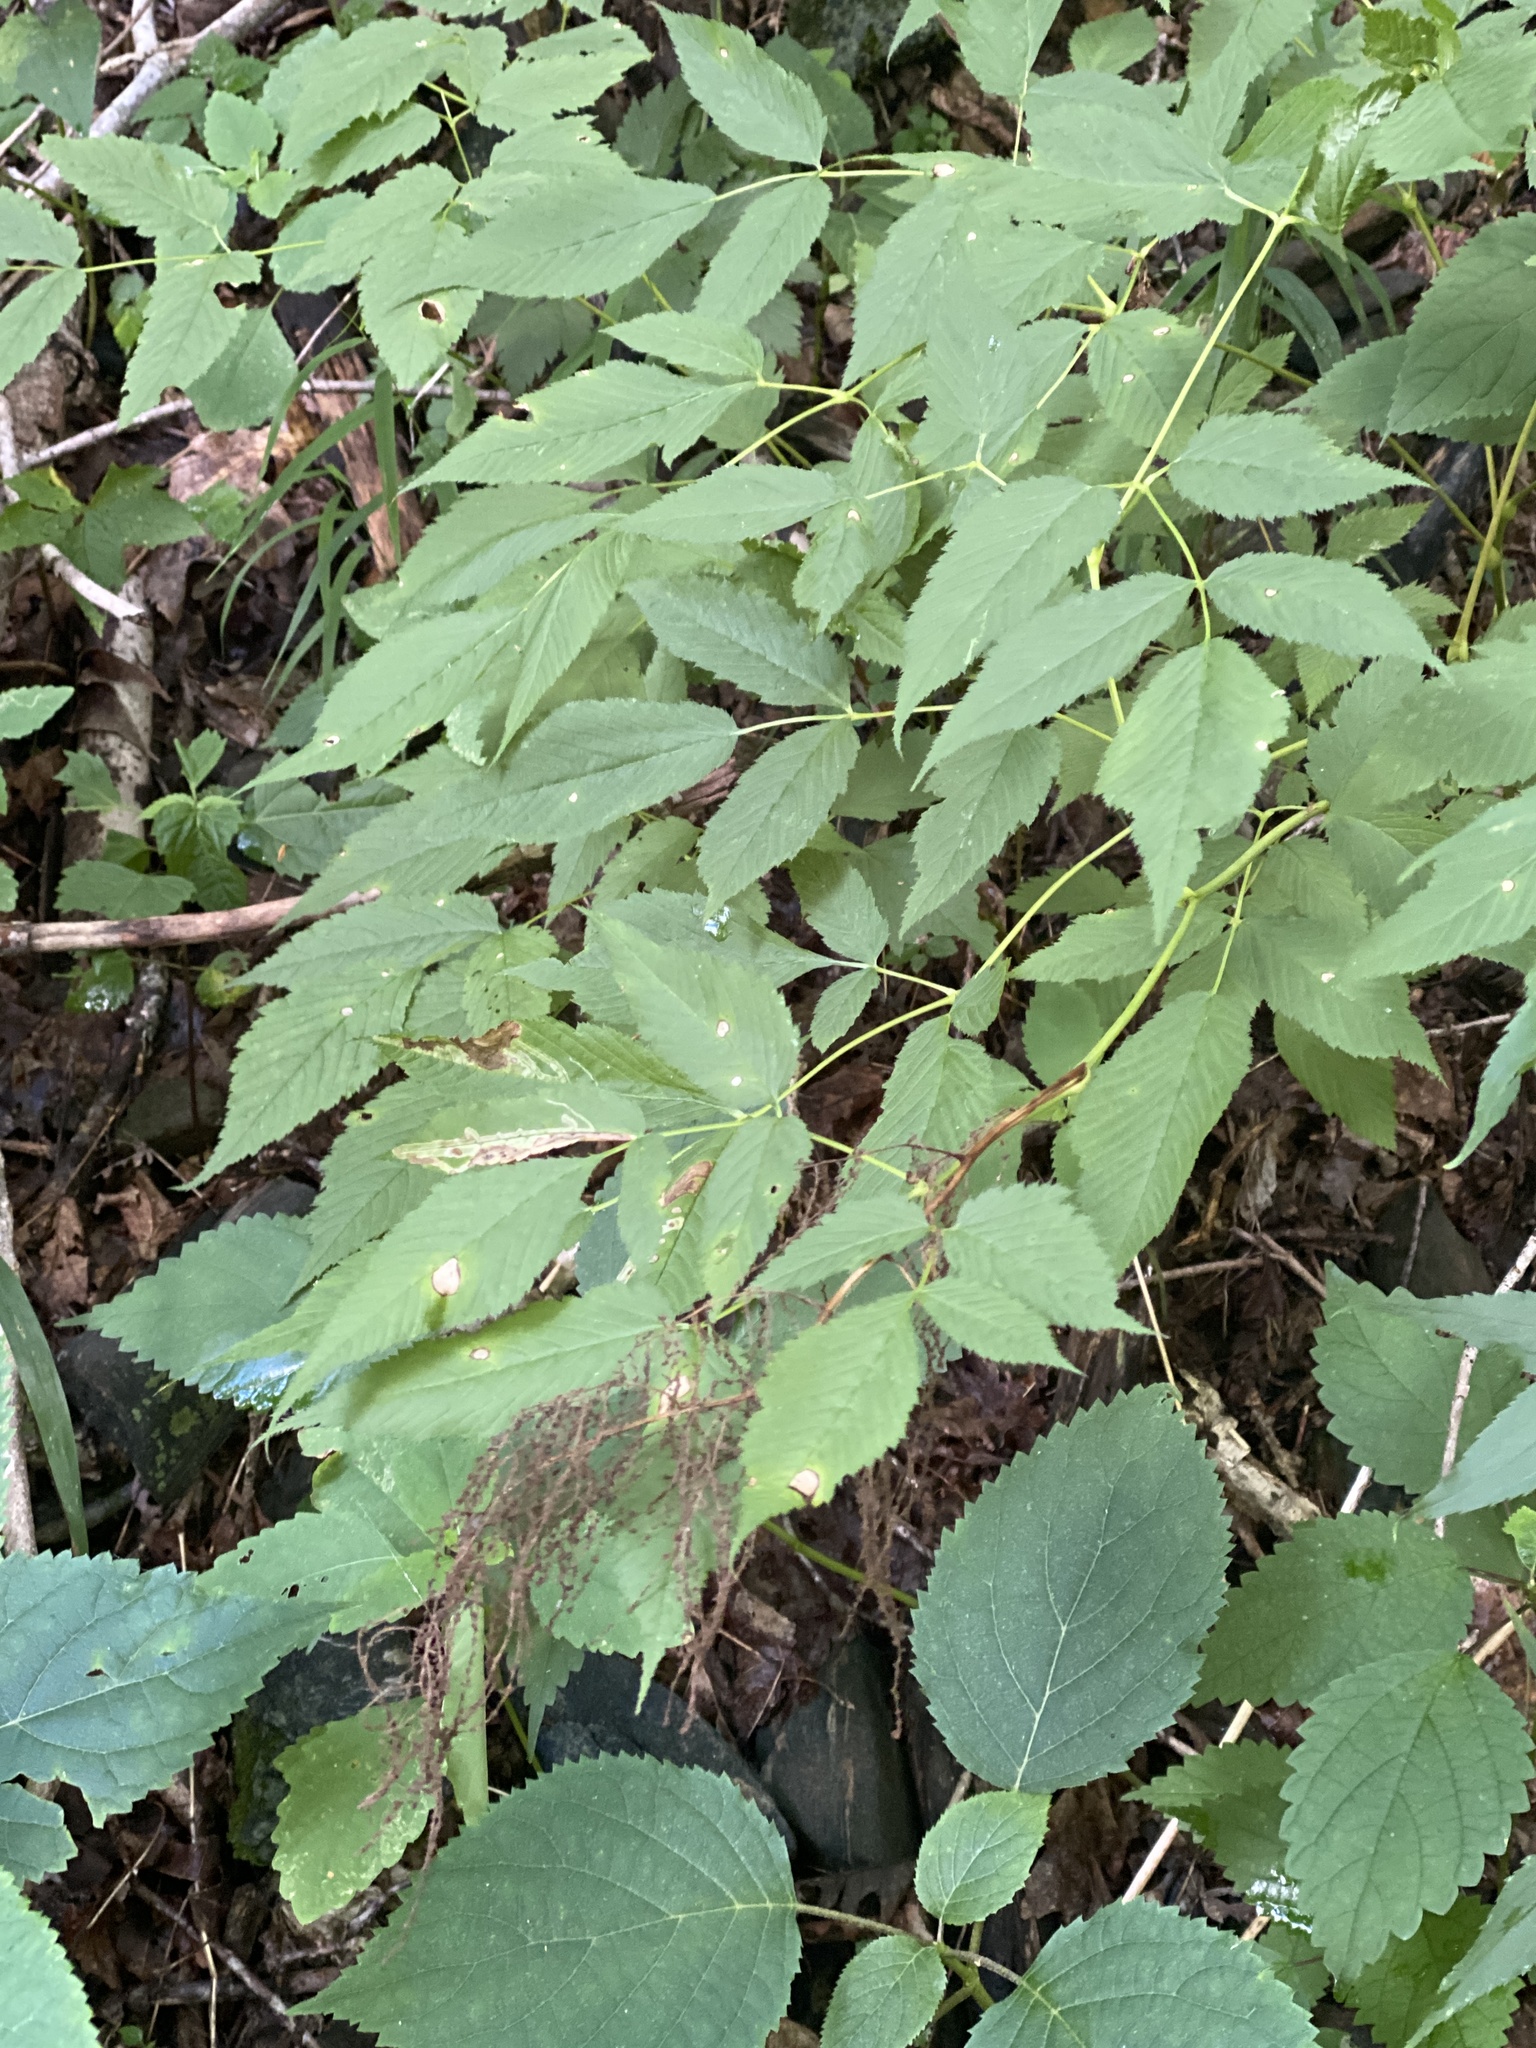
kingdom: Plantae
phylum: Tracheophyta
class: Magnoliopsida
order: Rosales
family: Rosaceae
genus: Aruncus
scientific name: Aruncus dioicus
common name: Buck's-beard
